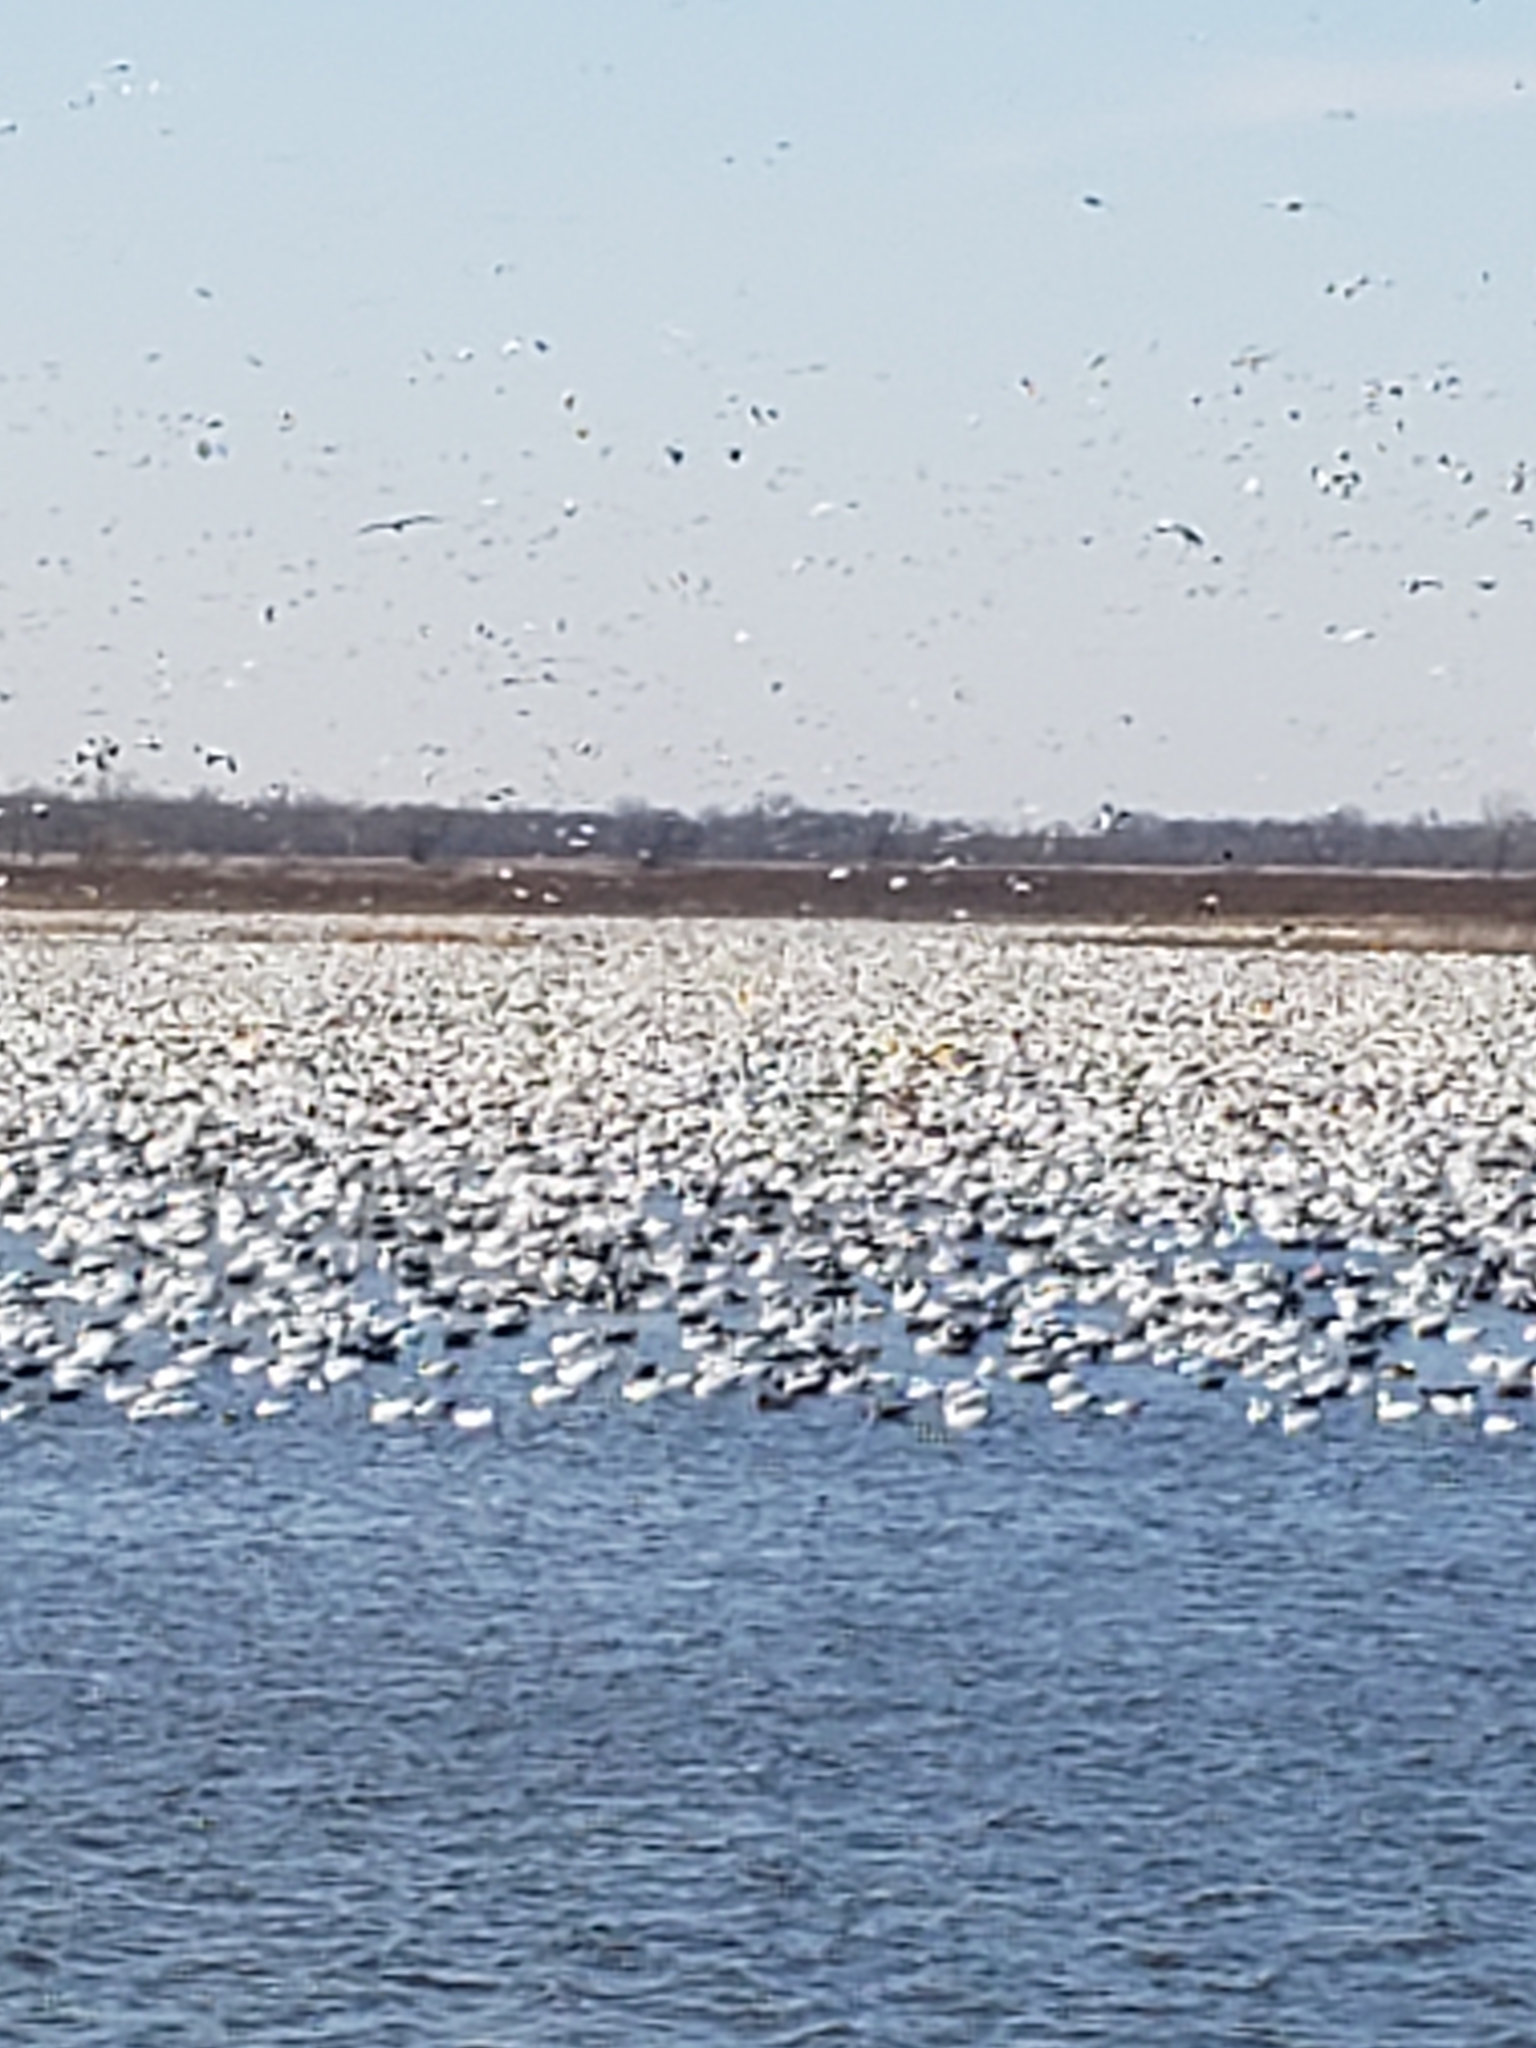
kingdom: Animalia
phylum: Chordata
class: Aves
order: Anseriformes
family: Anatidae
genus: Anser
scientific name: Anser caerulescens
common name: Snow goose
